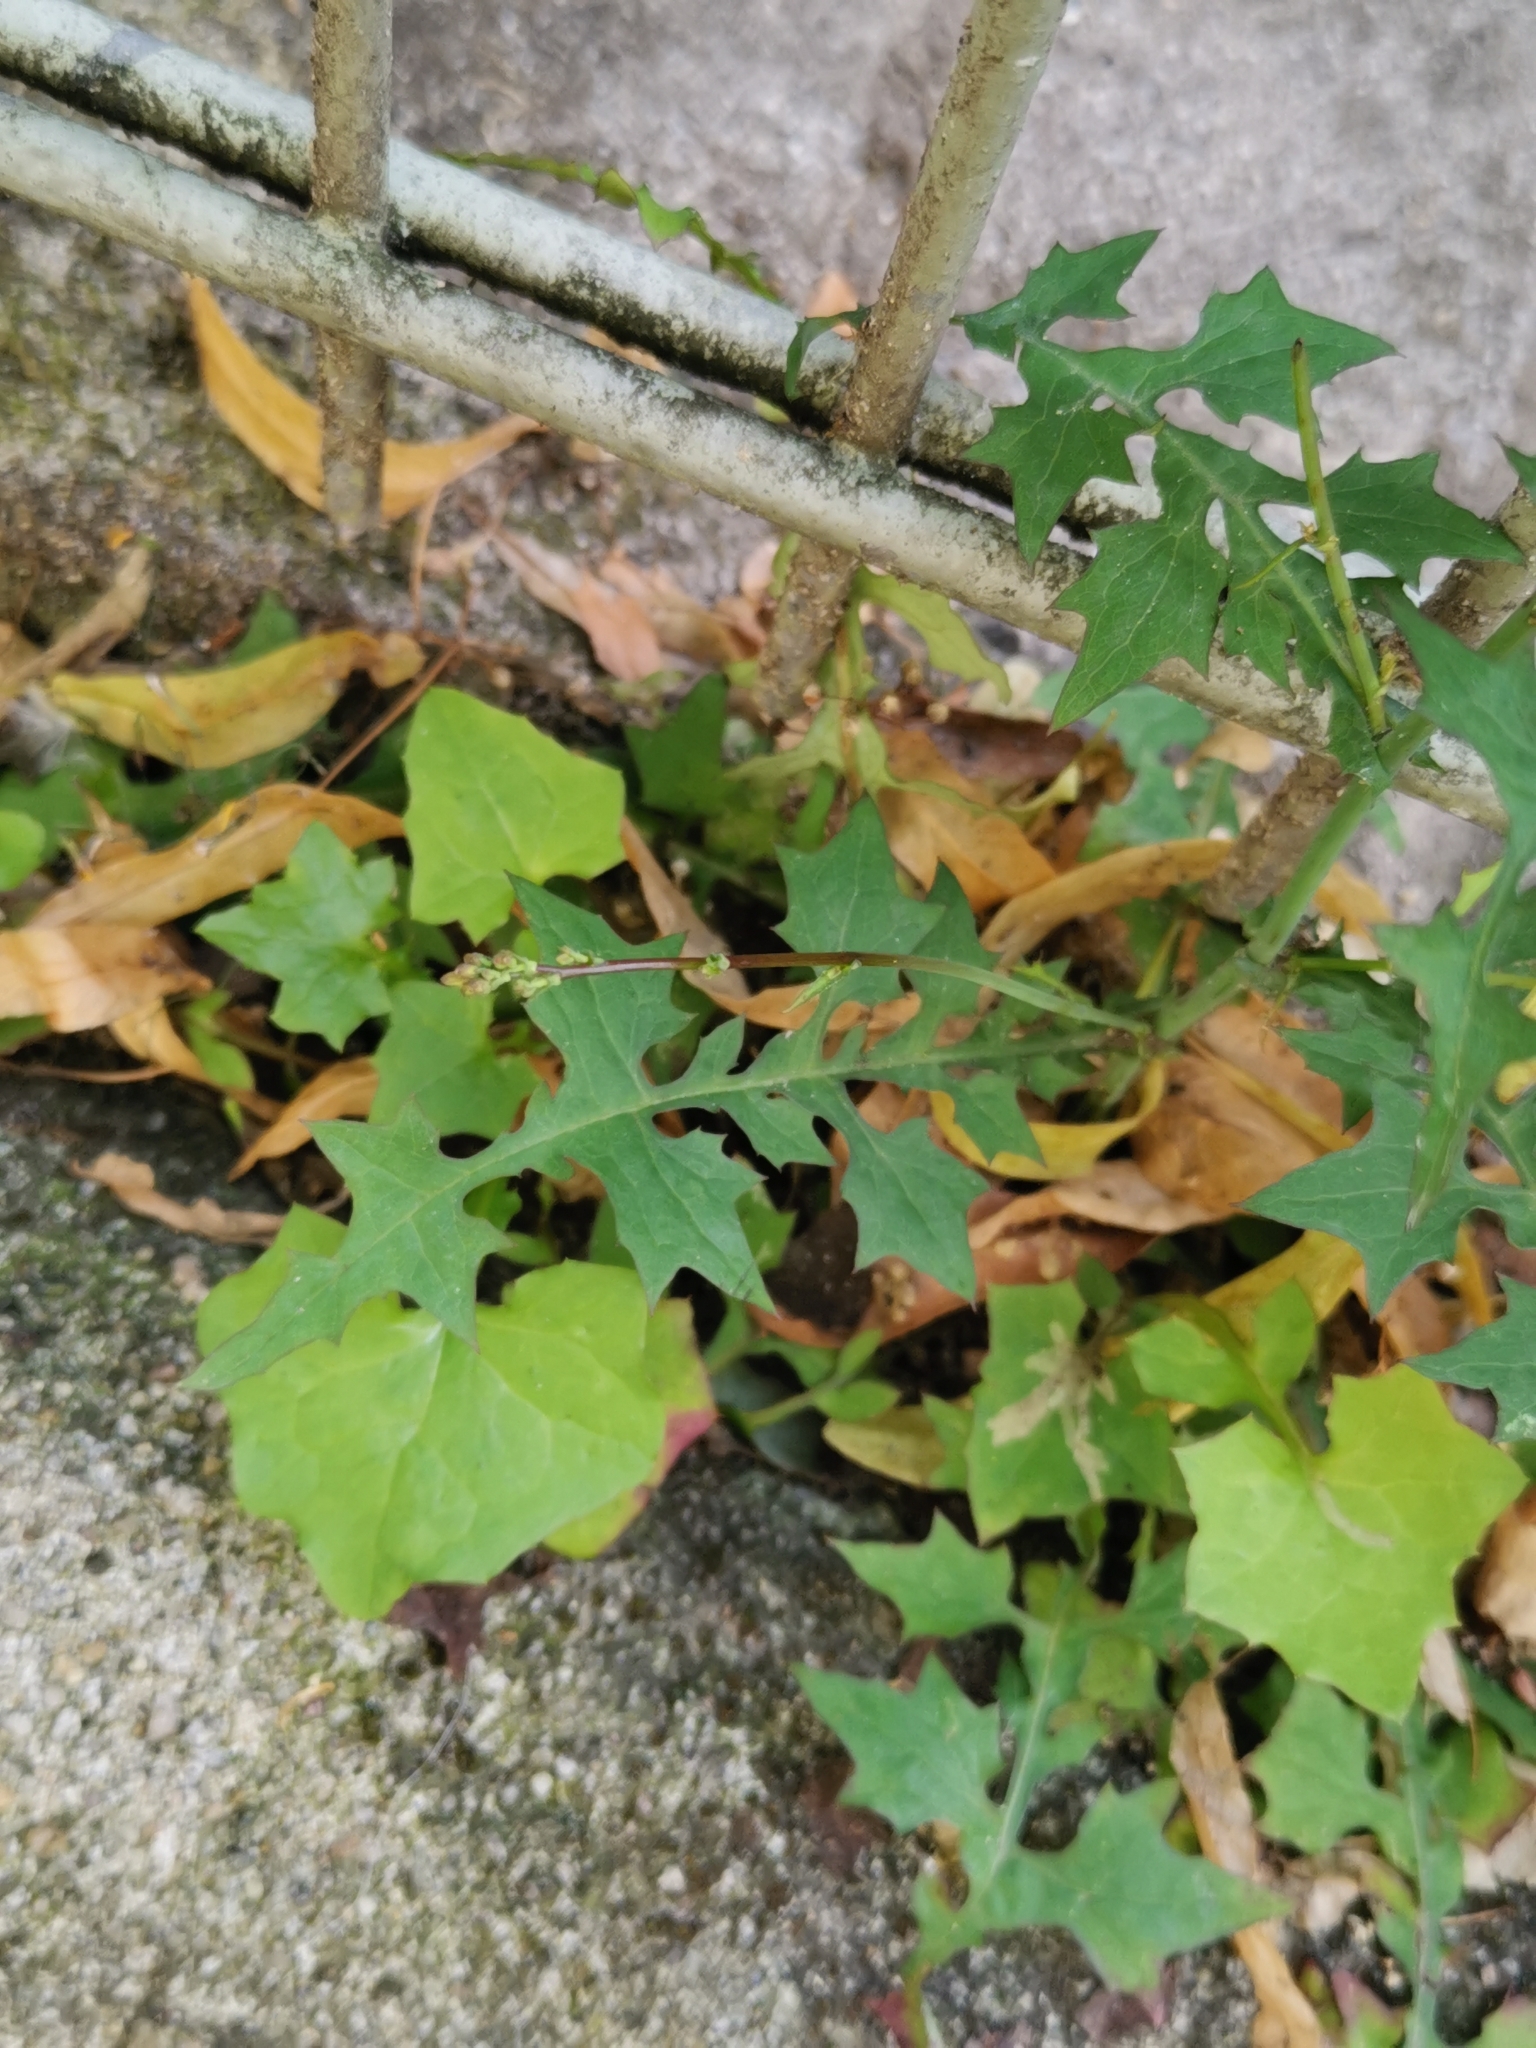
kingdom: Plantae
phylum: Tracheophyta
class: Magnoliopsida
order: Asterales
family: Asteraceae
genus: Mycelis
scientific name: Mycelis muralis
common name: Wall lettuce
